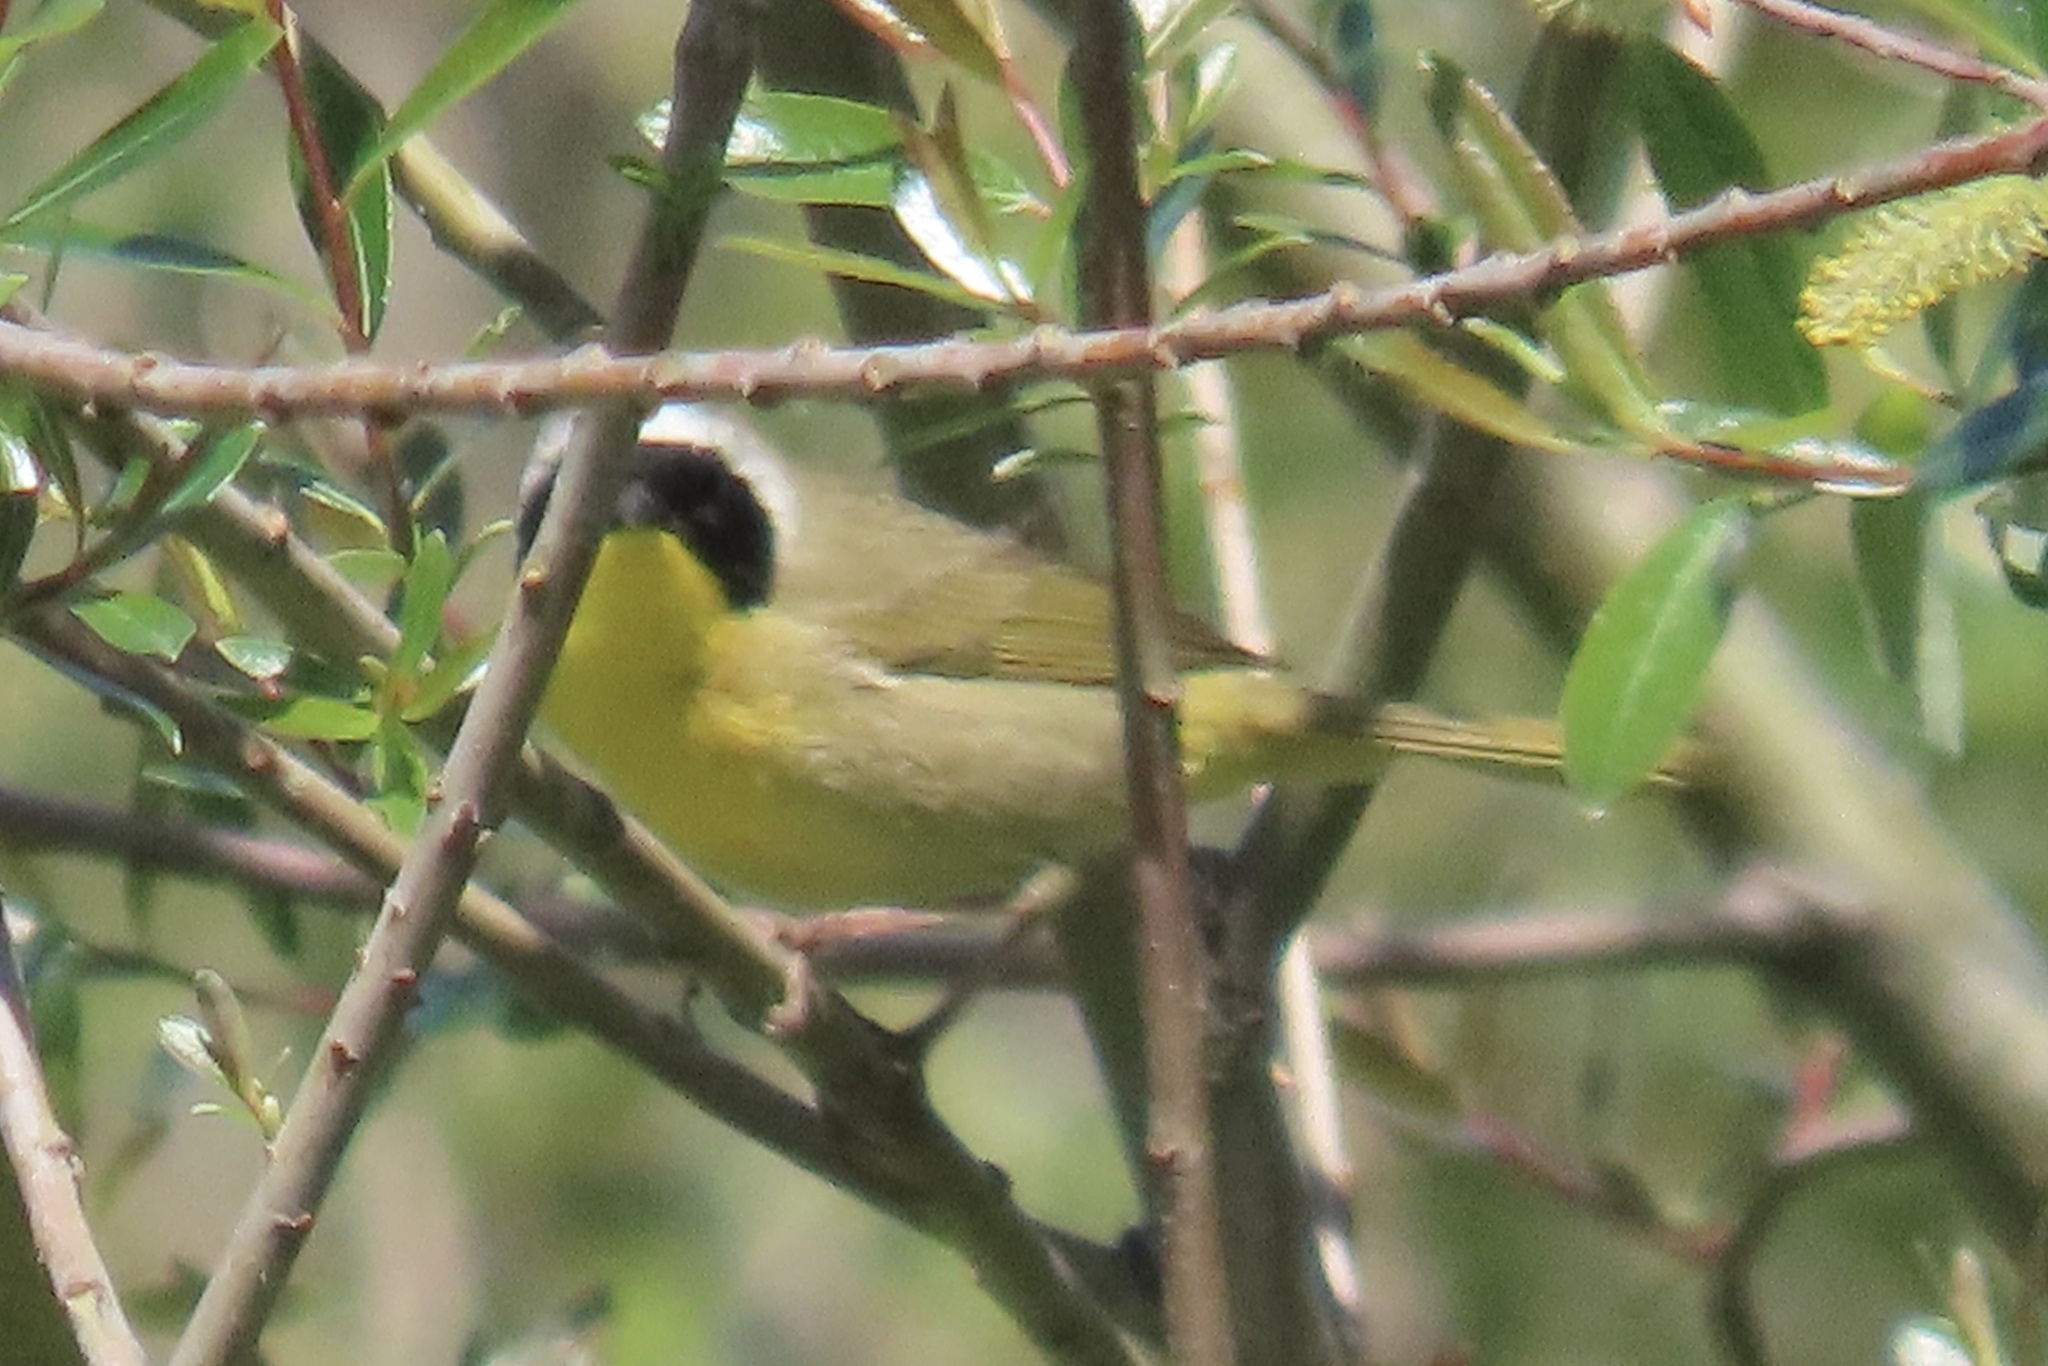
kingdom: Animalia
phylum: Chordata
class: Aves
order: Passeriformes
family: Parulidae
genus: Geothlypis
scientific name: Geothlypis trichas
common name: Common yellowthroat
